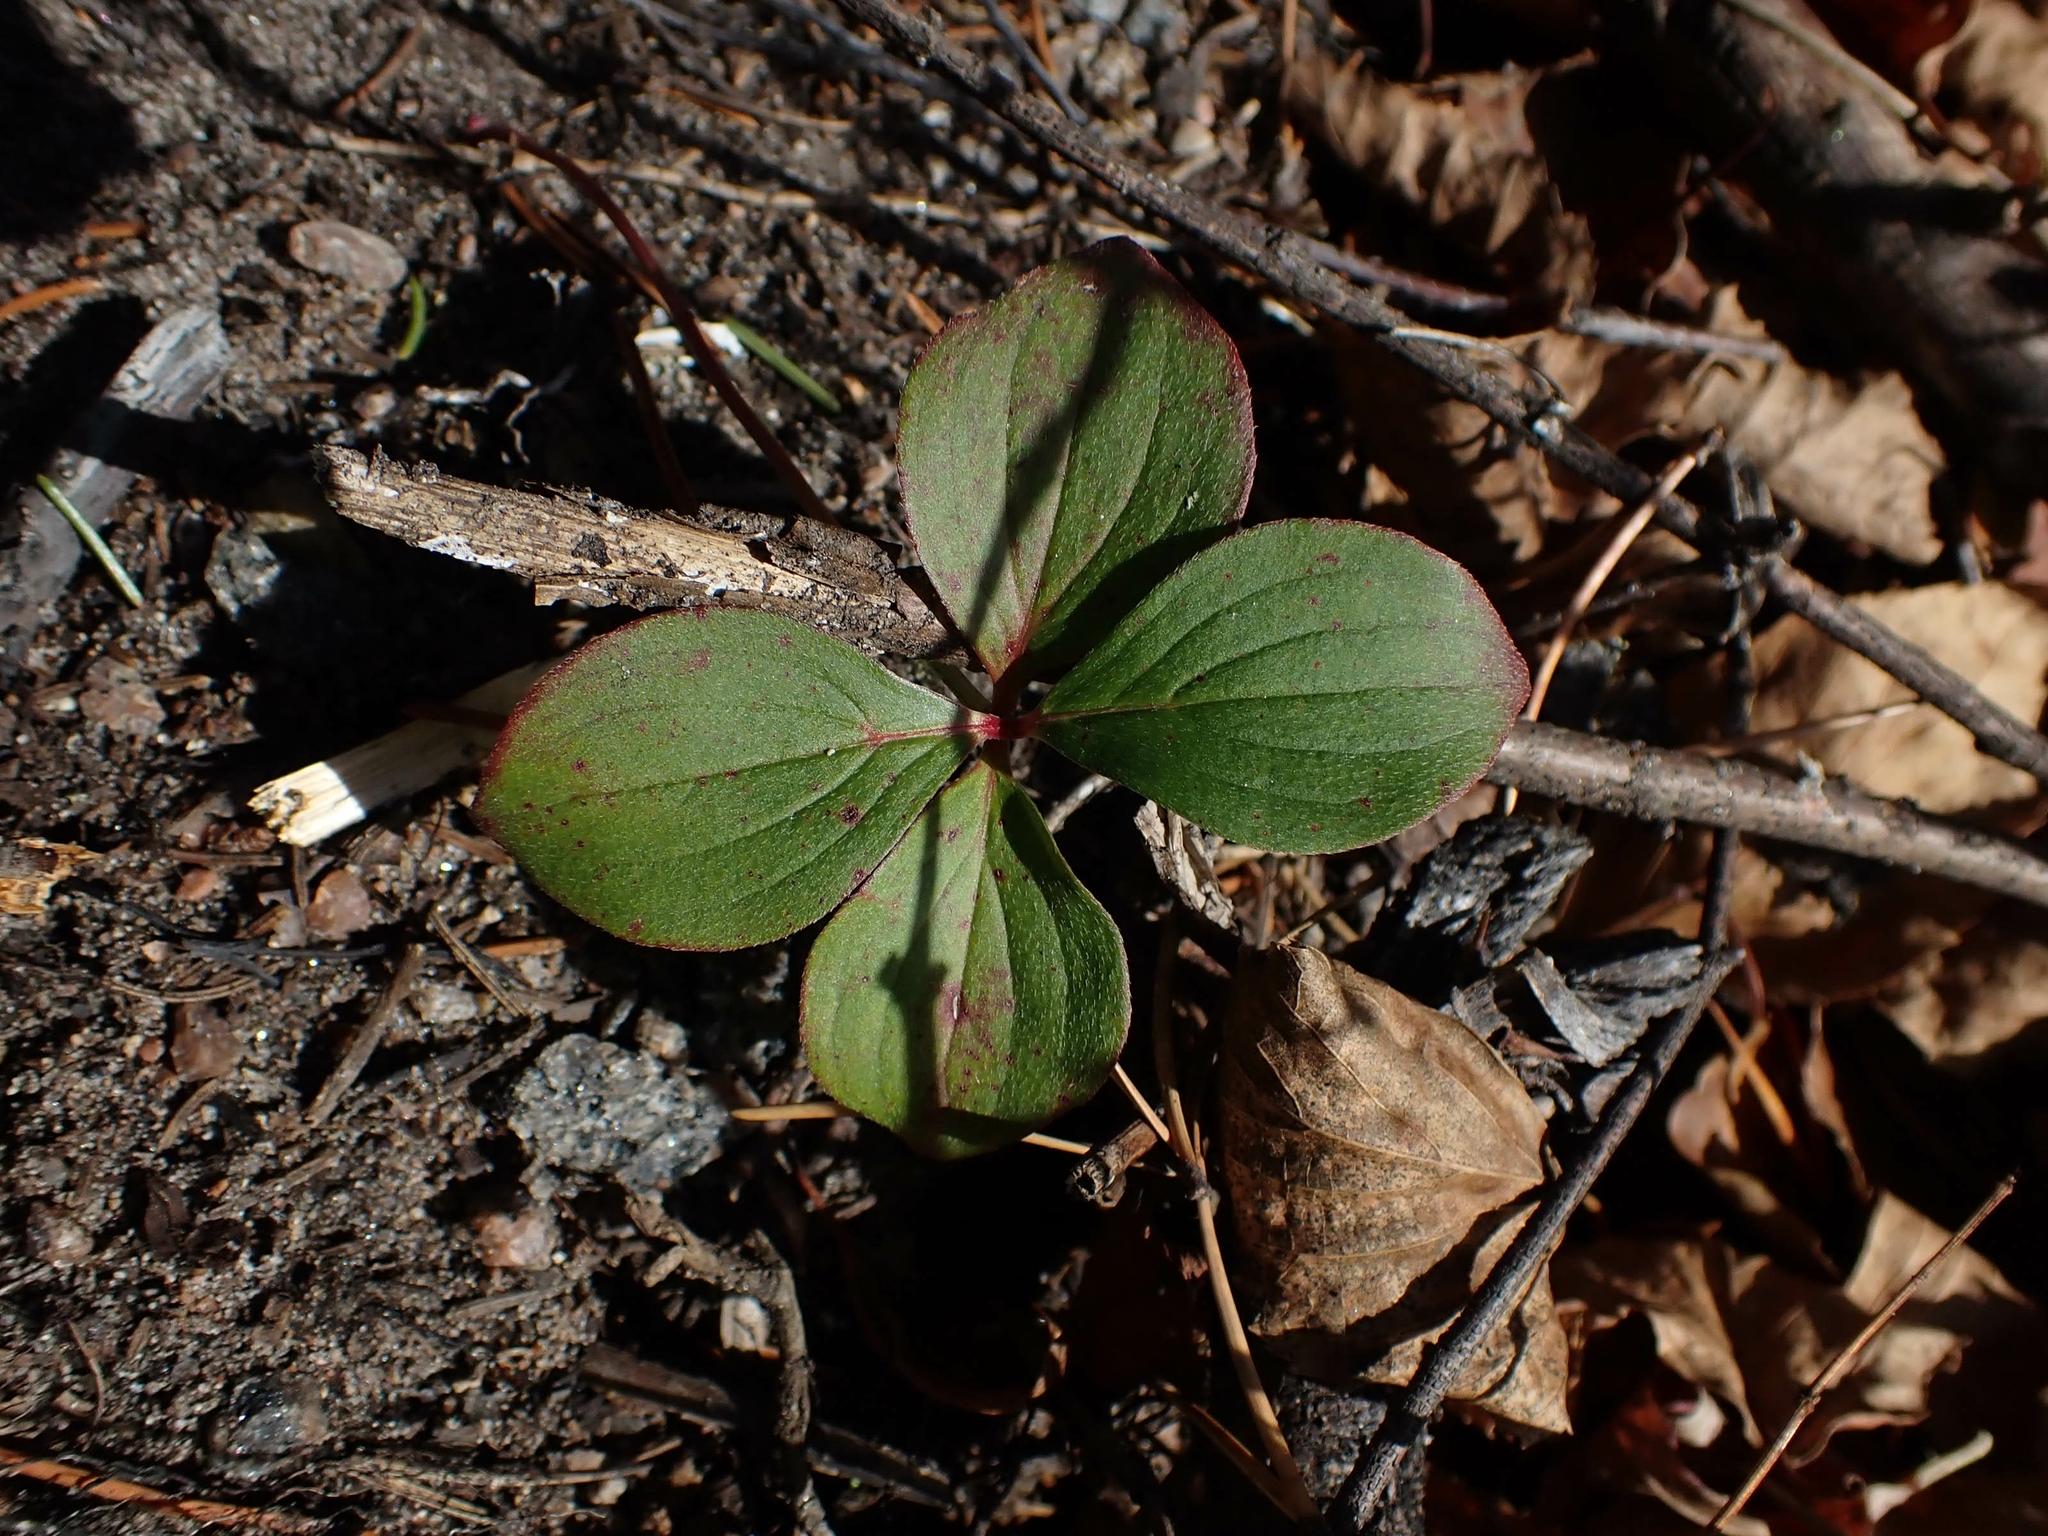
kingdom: Plantae
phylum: Tracheophyta
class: Magnoliopsida
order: Cornales
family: Cornaceae
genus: Cornus
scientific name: Cornus canadensis
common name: Creeping dogwood
